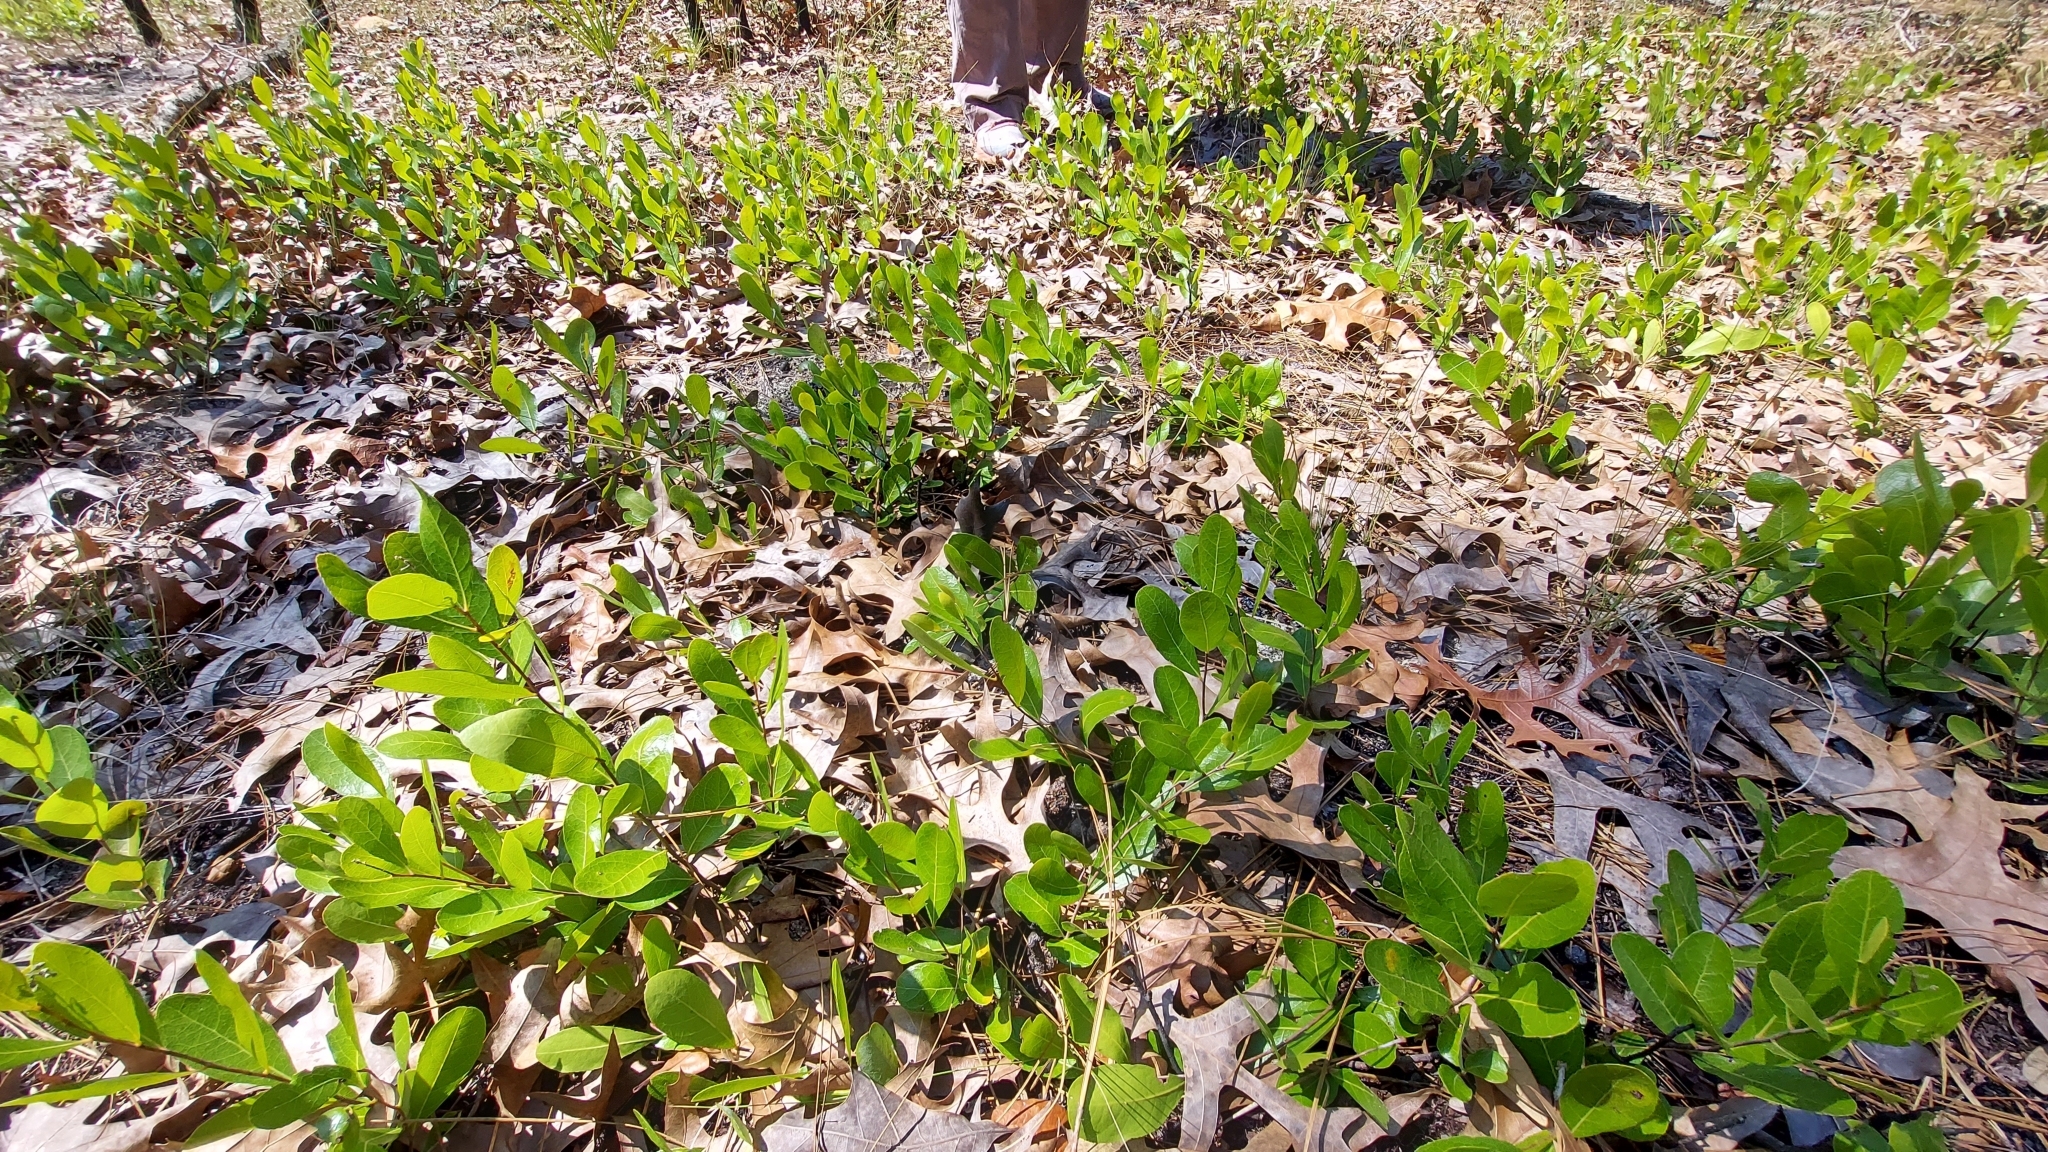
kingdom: Plantae
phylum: Tracheophyta
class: Magnoliopsida
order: Malpighiales
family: Chrysobalanaceae
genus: Geobalanus
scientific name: Geobalanus oblongifolius
